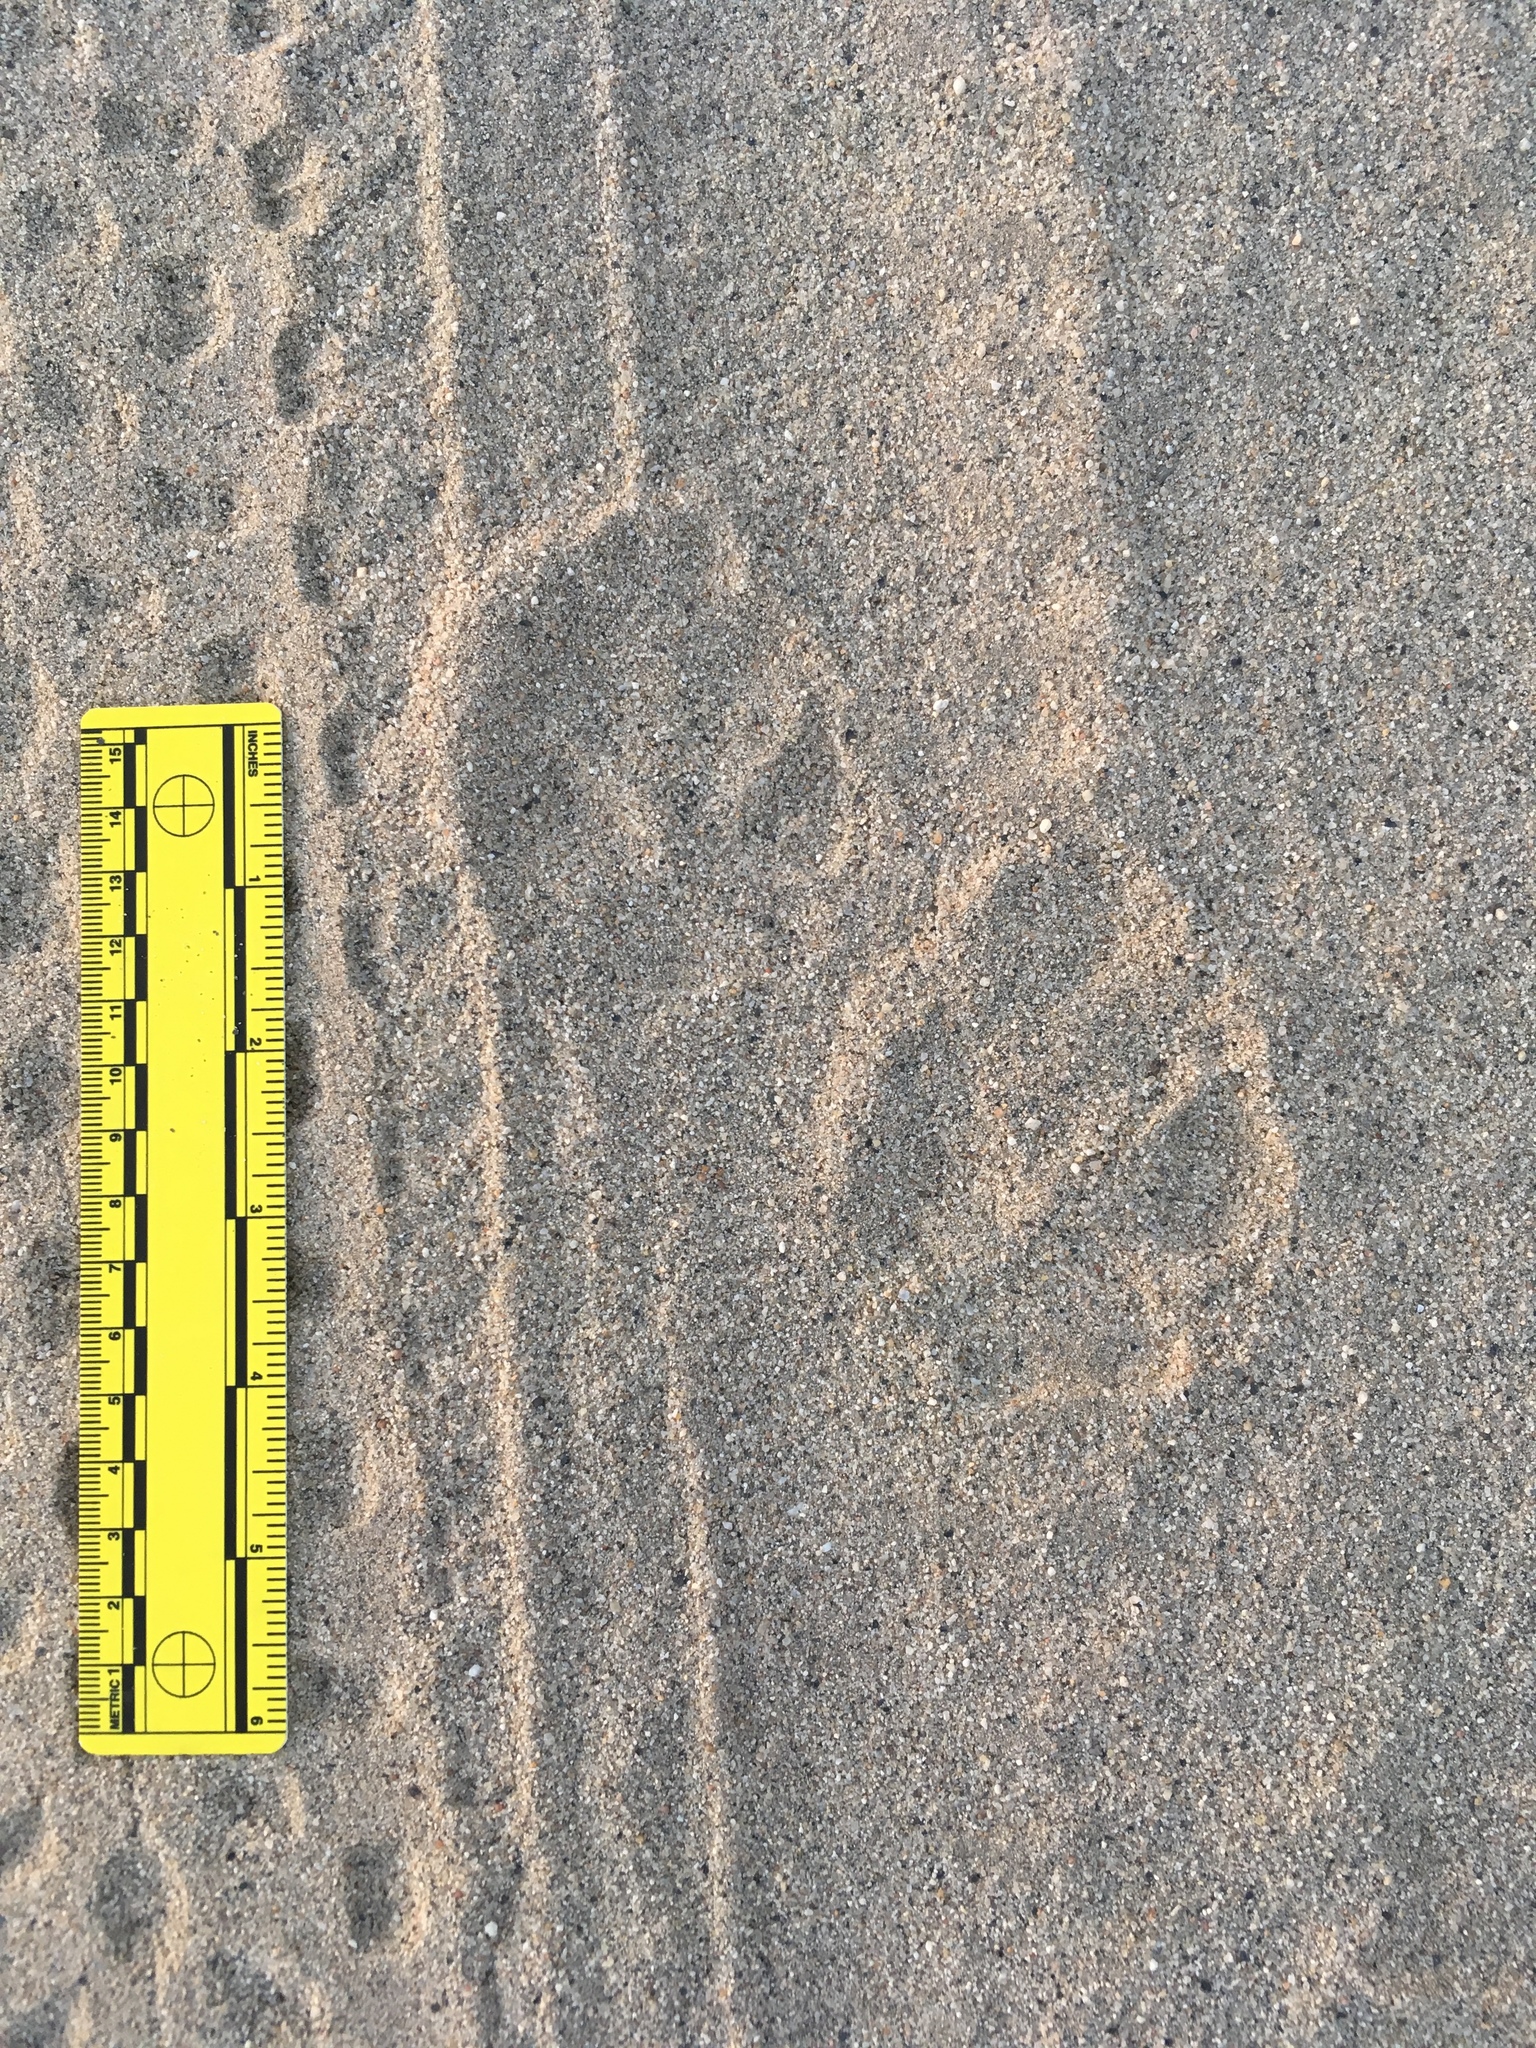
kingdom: Animalia
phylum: Chordata
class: Mammalia
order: Carnivora
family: Canidae
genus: Canis
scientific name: Canis latrans
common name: Coyote
